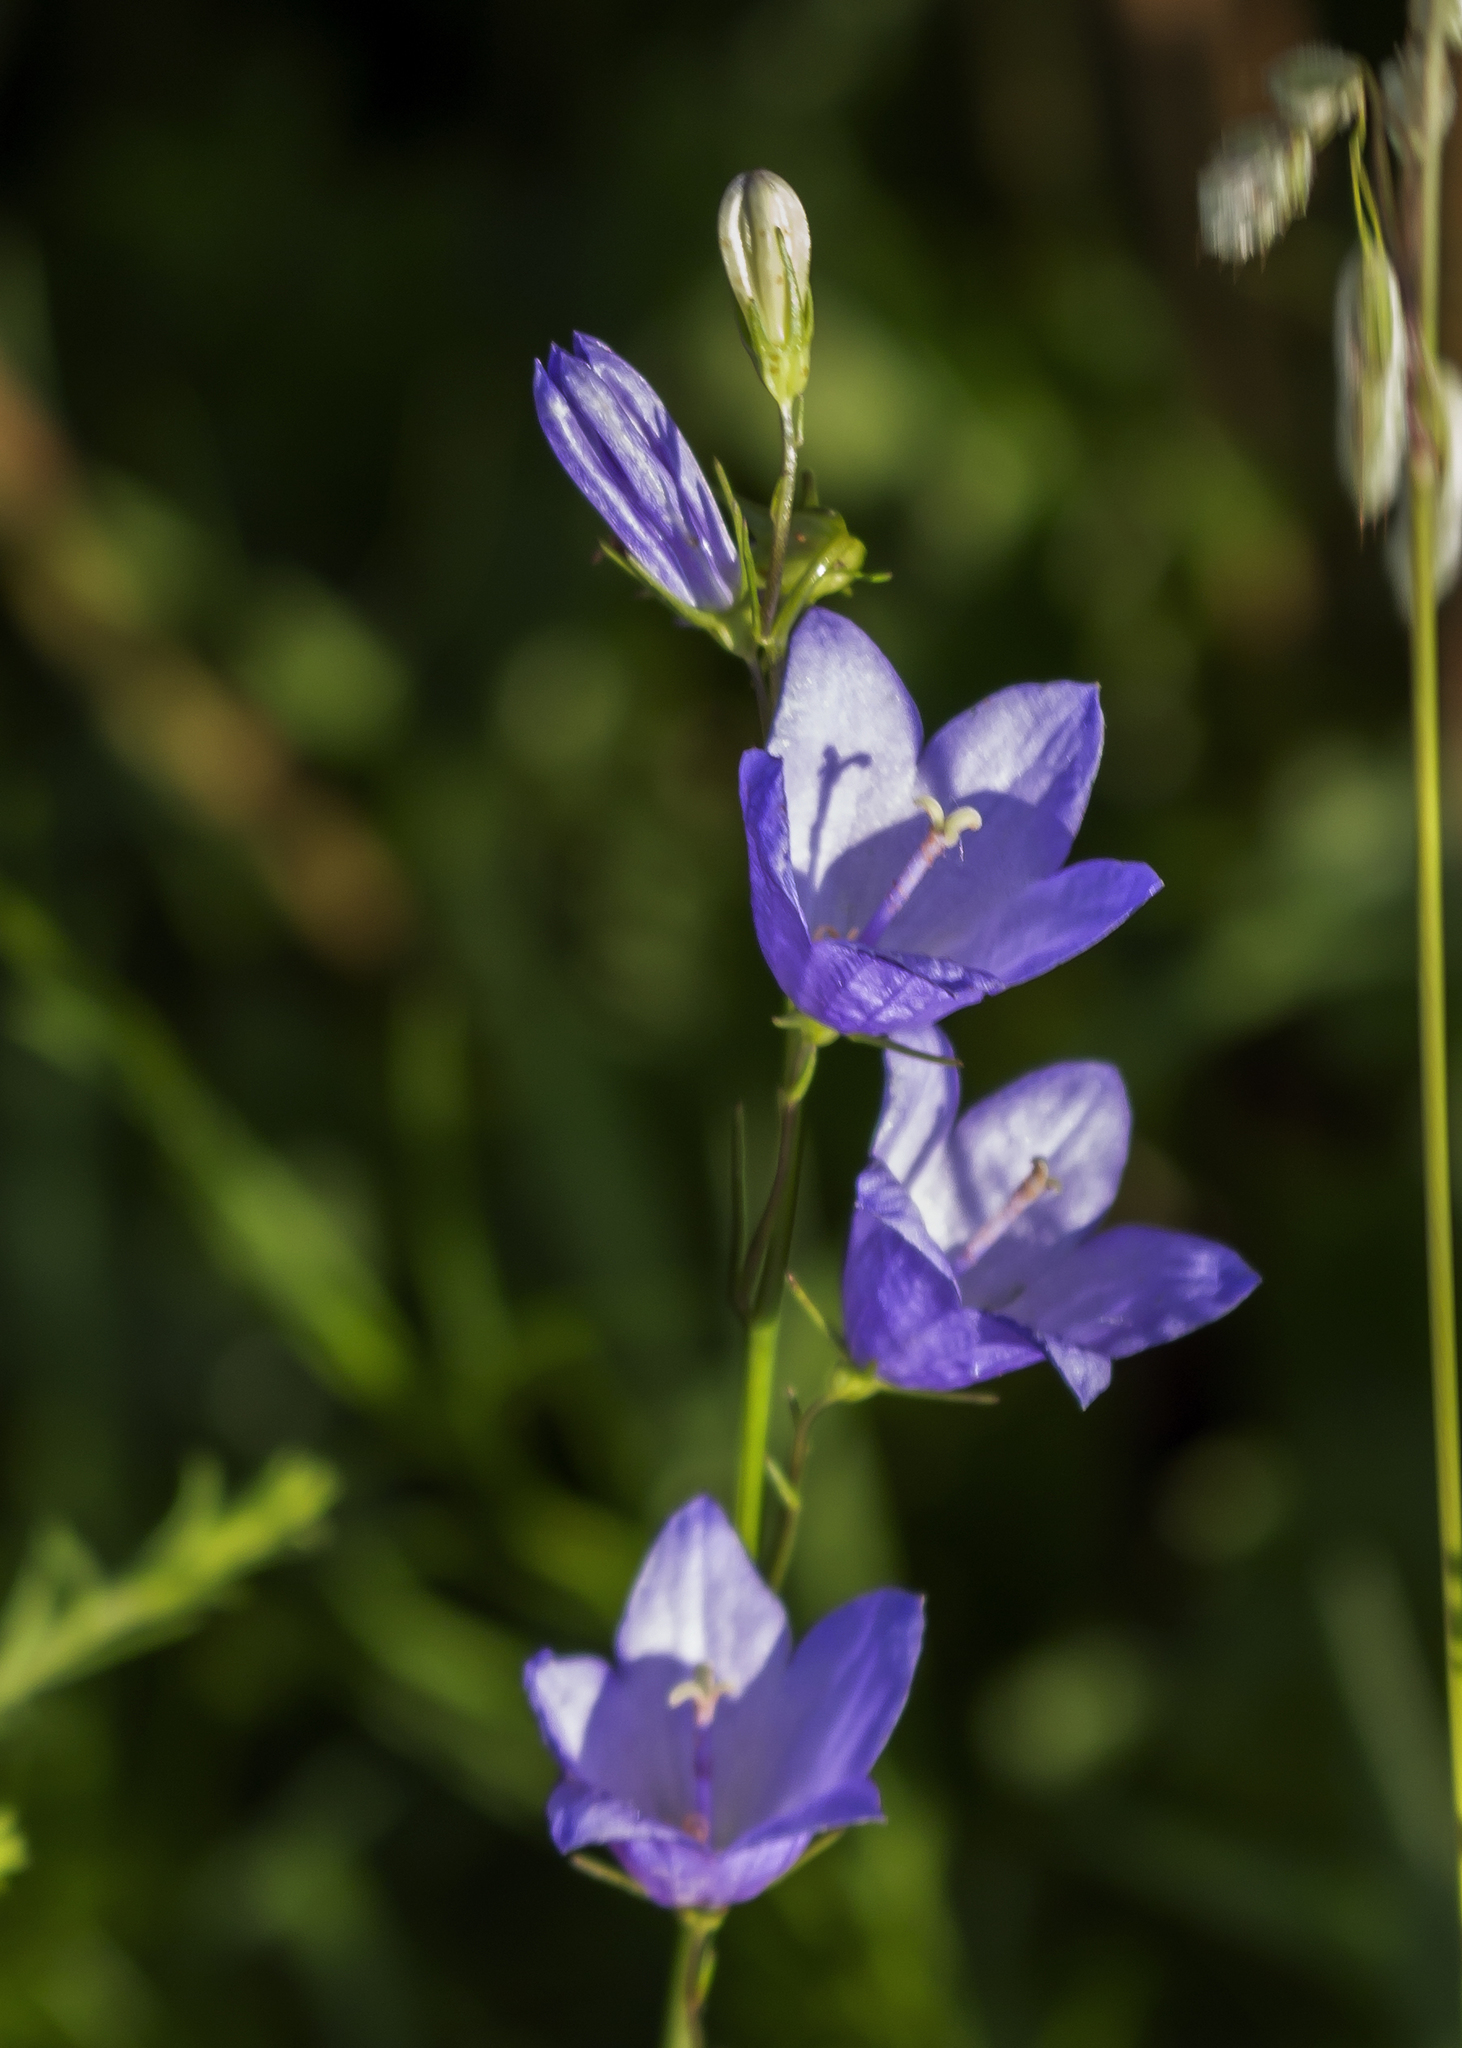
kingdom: Plantae
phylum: Tracheophyta
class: Magnoliopsida
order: Asterales
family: Campanulaceae
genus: Campanula
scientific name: Campanula intercedens
